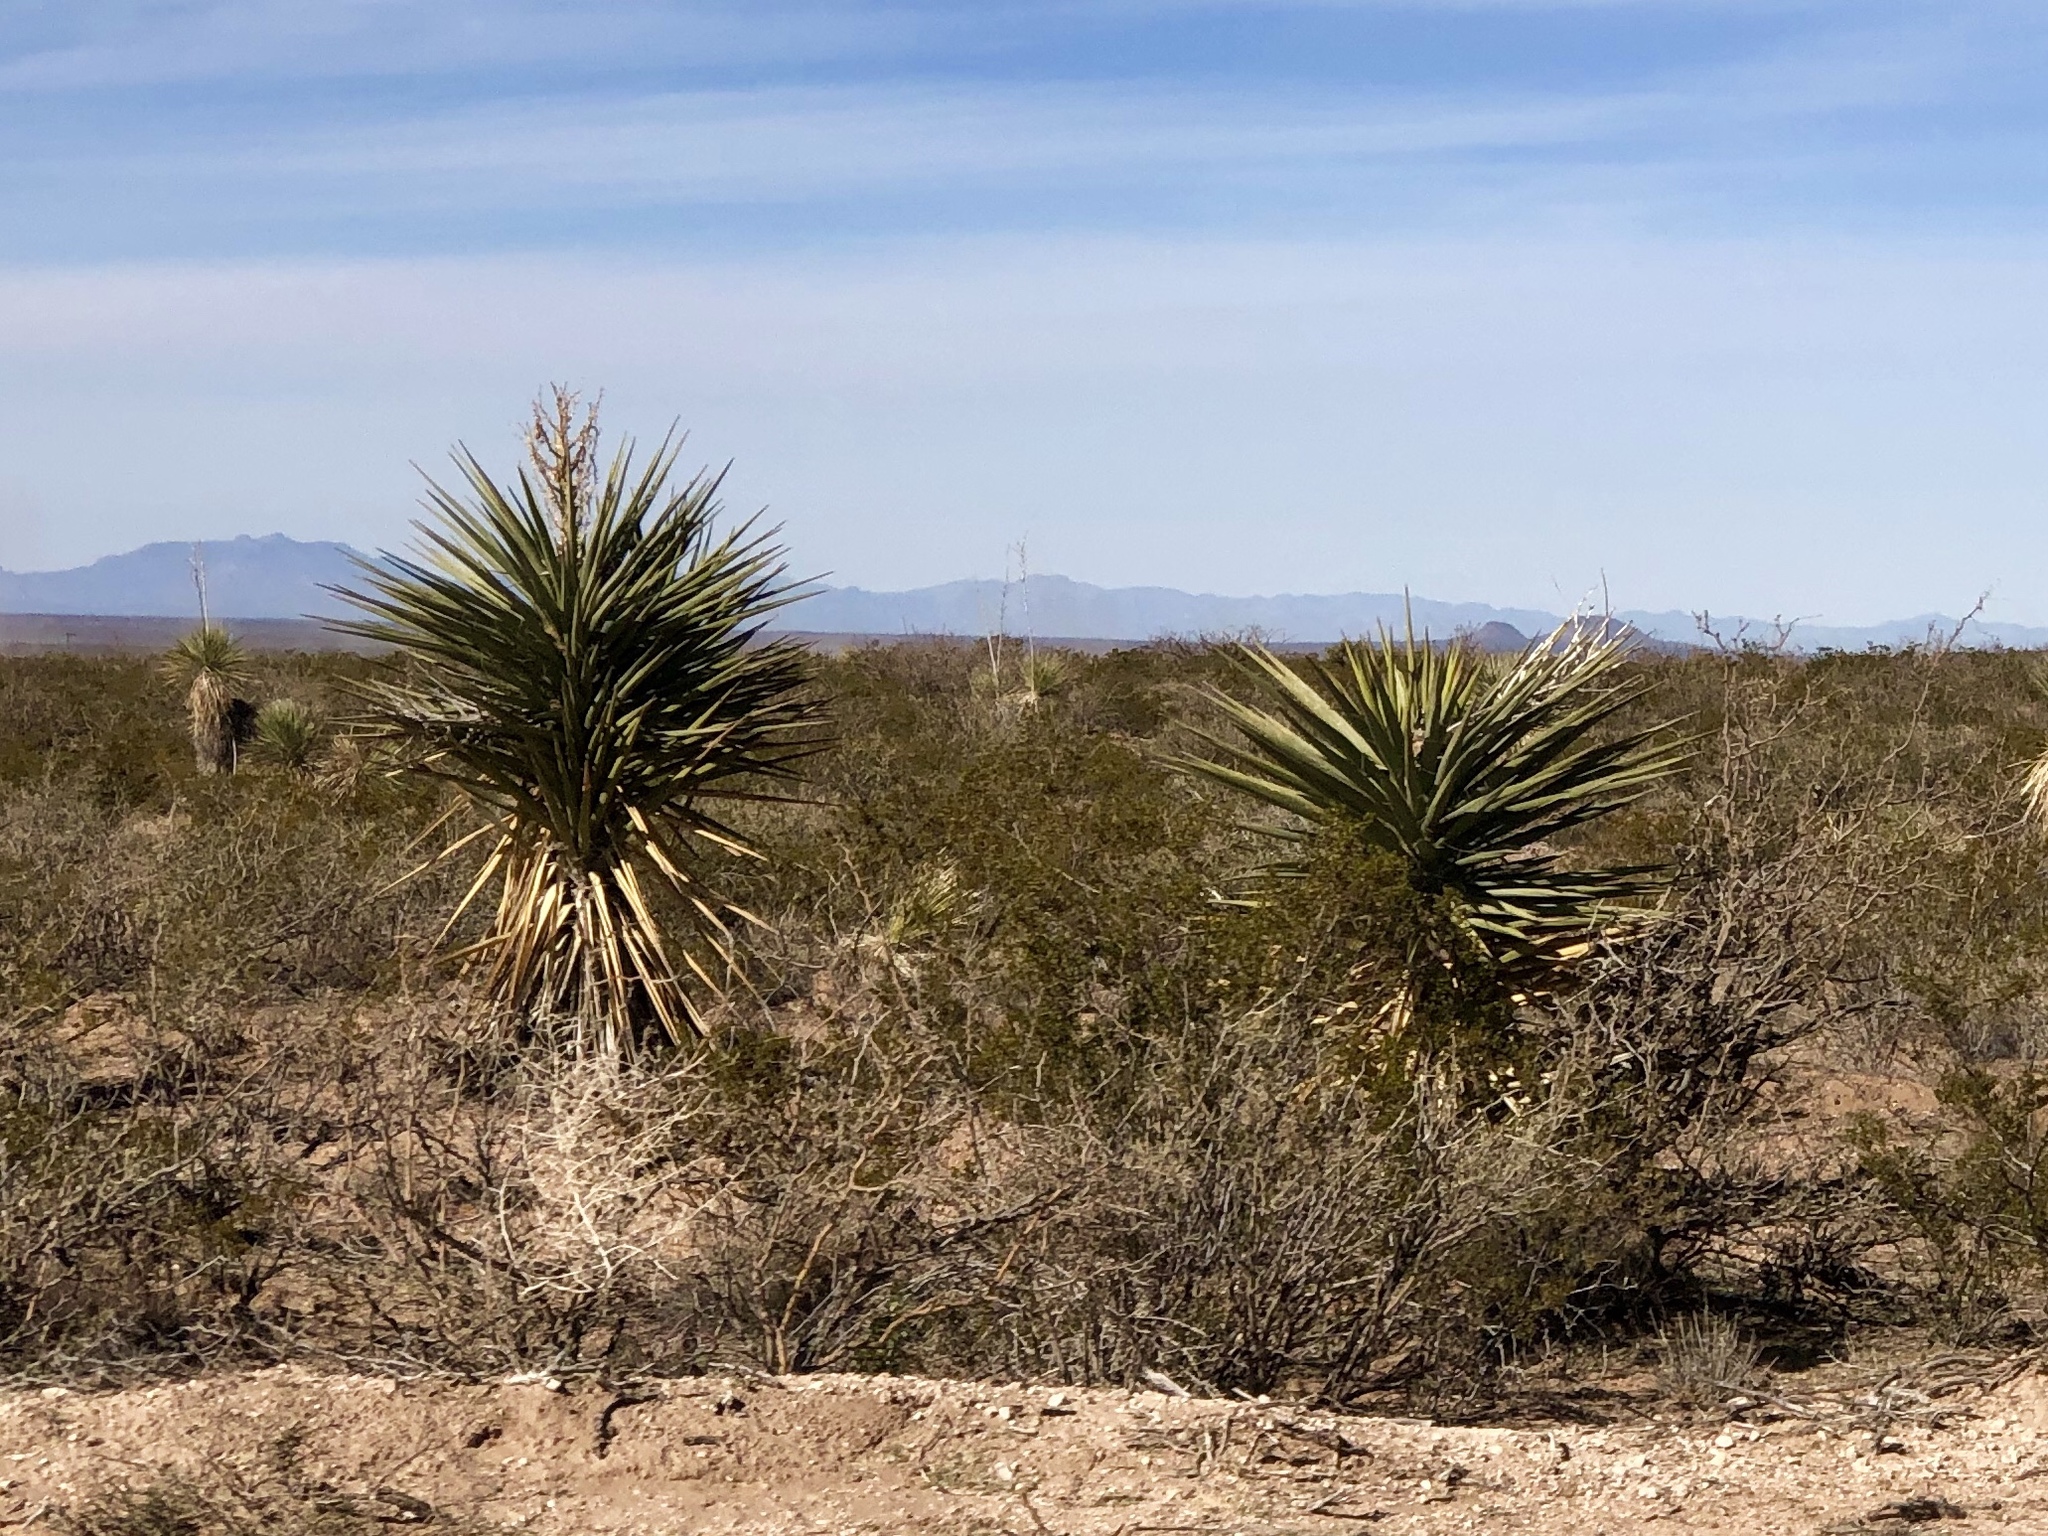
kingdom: Plantae
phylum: Tracheophyta
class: Liliopsida
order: Asparagales
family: Asparagaceae
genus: Yucca
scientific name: Yucca treculiana
